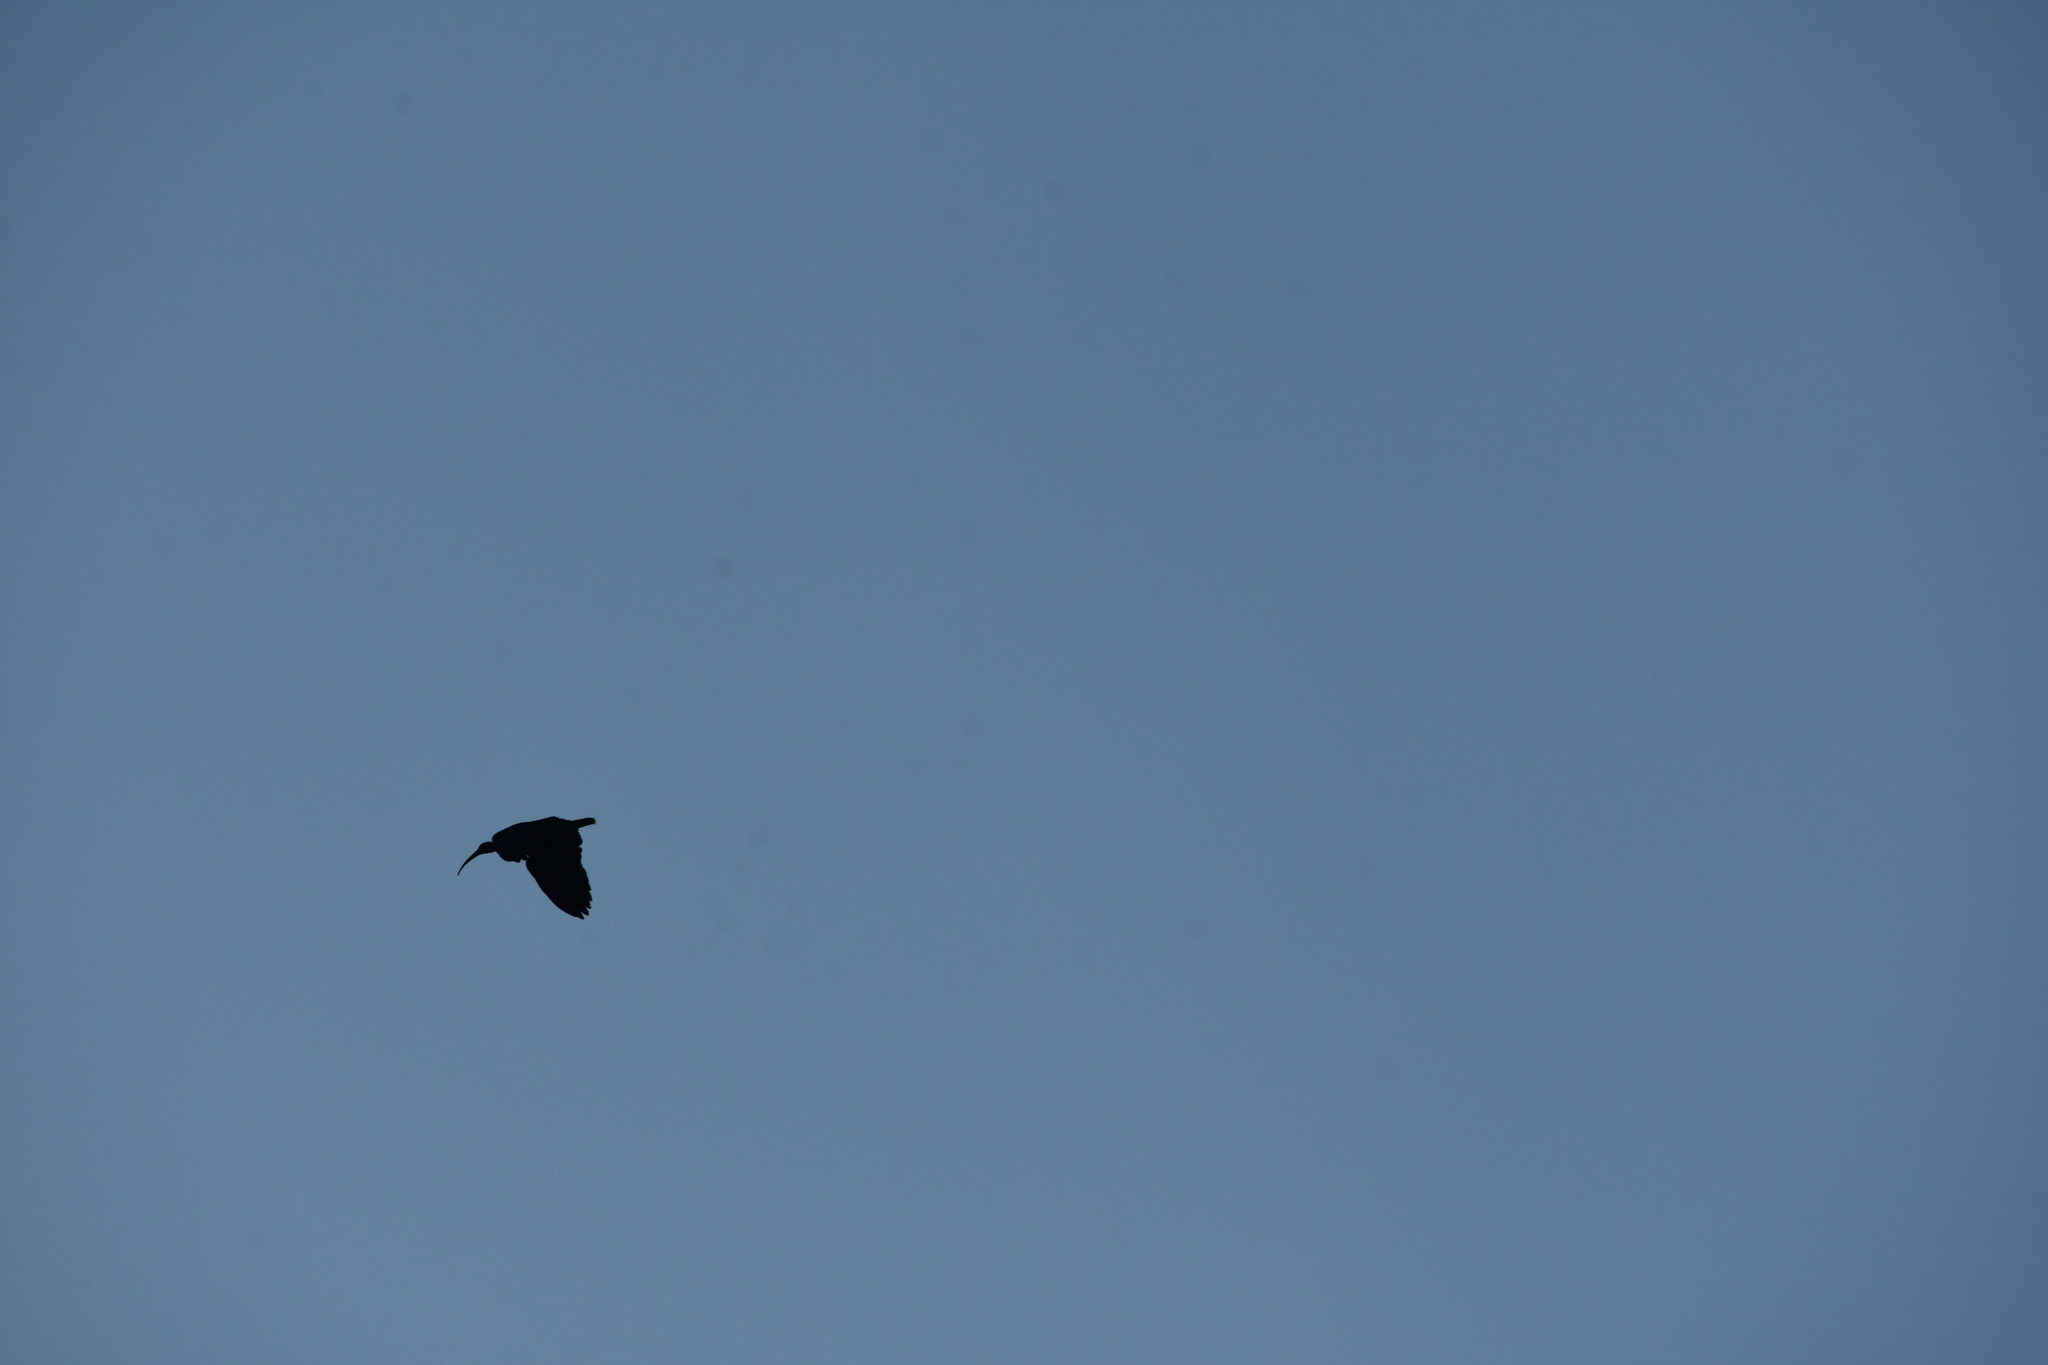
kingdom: Animalia
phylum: Chordata
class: Aves
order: Pelecaniformes
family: Threskiornithidae
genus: Phimosus
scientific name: Phimosus infuscatus
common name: Bare-faced ibis
